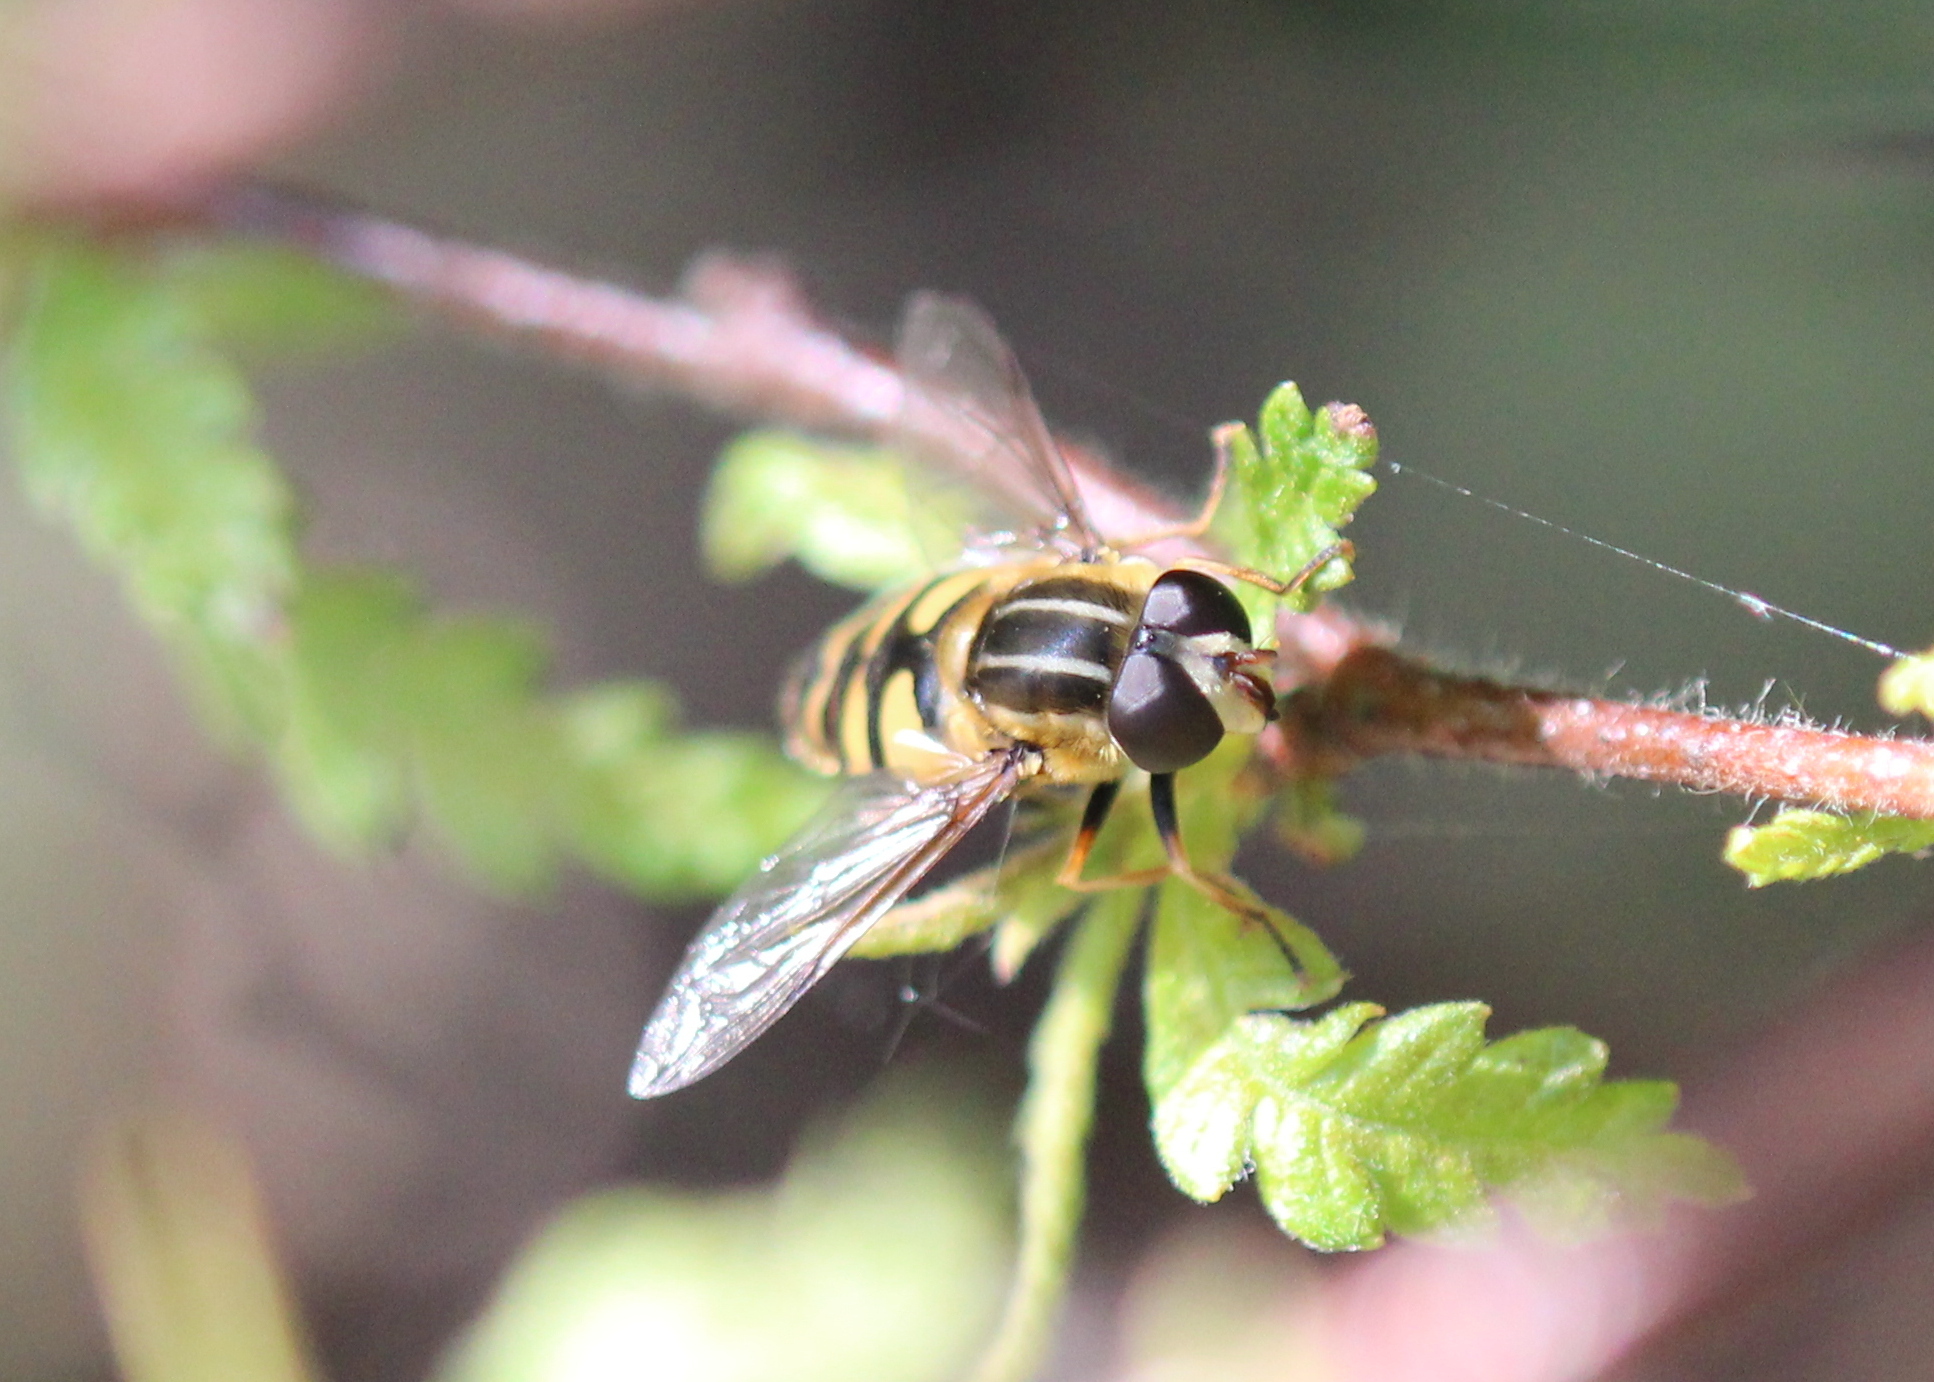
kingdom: Animalia
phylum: Arthropoda
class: Insecta
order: Diptera
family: Syrphidae
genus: Helophilus
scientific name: Helophilus fasciatus
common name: Narrow-headed marsh fly
